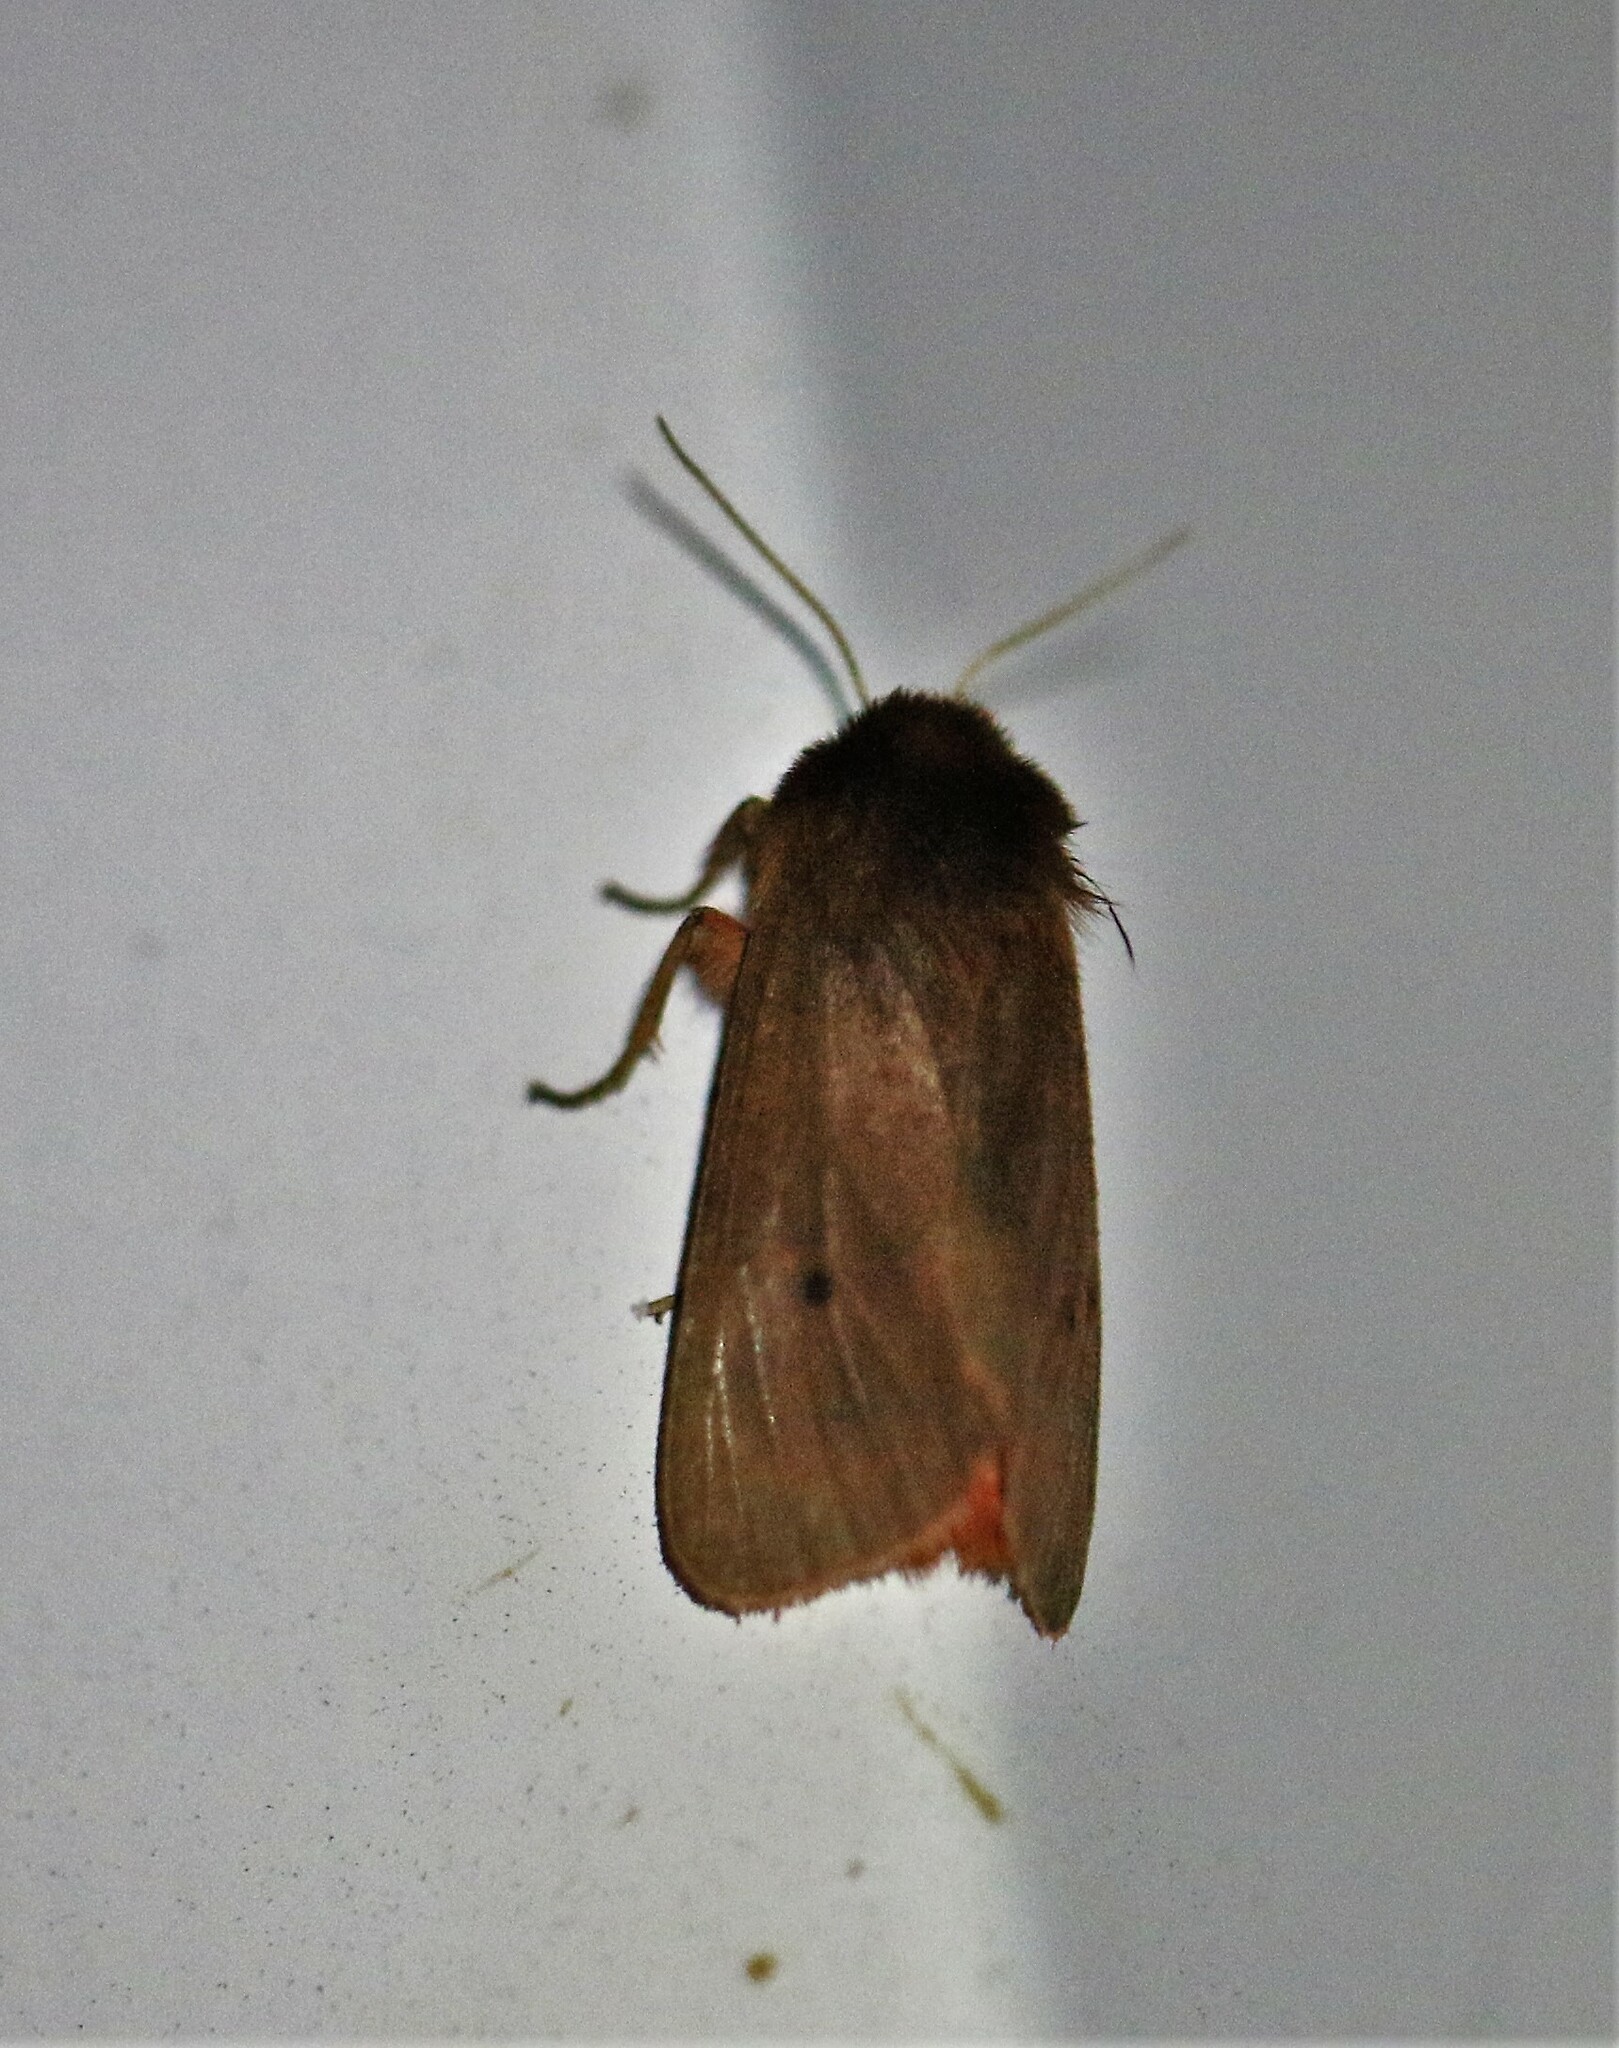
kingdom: Animalia
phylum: Arthropoda
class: Insecta
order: Lepidoptera
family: Erebidae
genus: Phragmatobia
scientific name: Phragmatobia fuliginosa
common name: Ruby tiger
